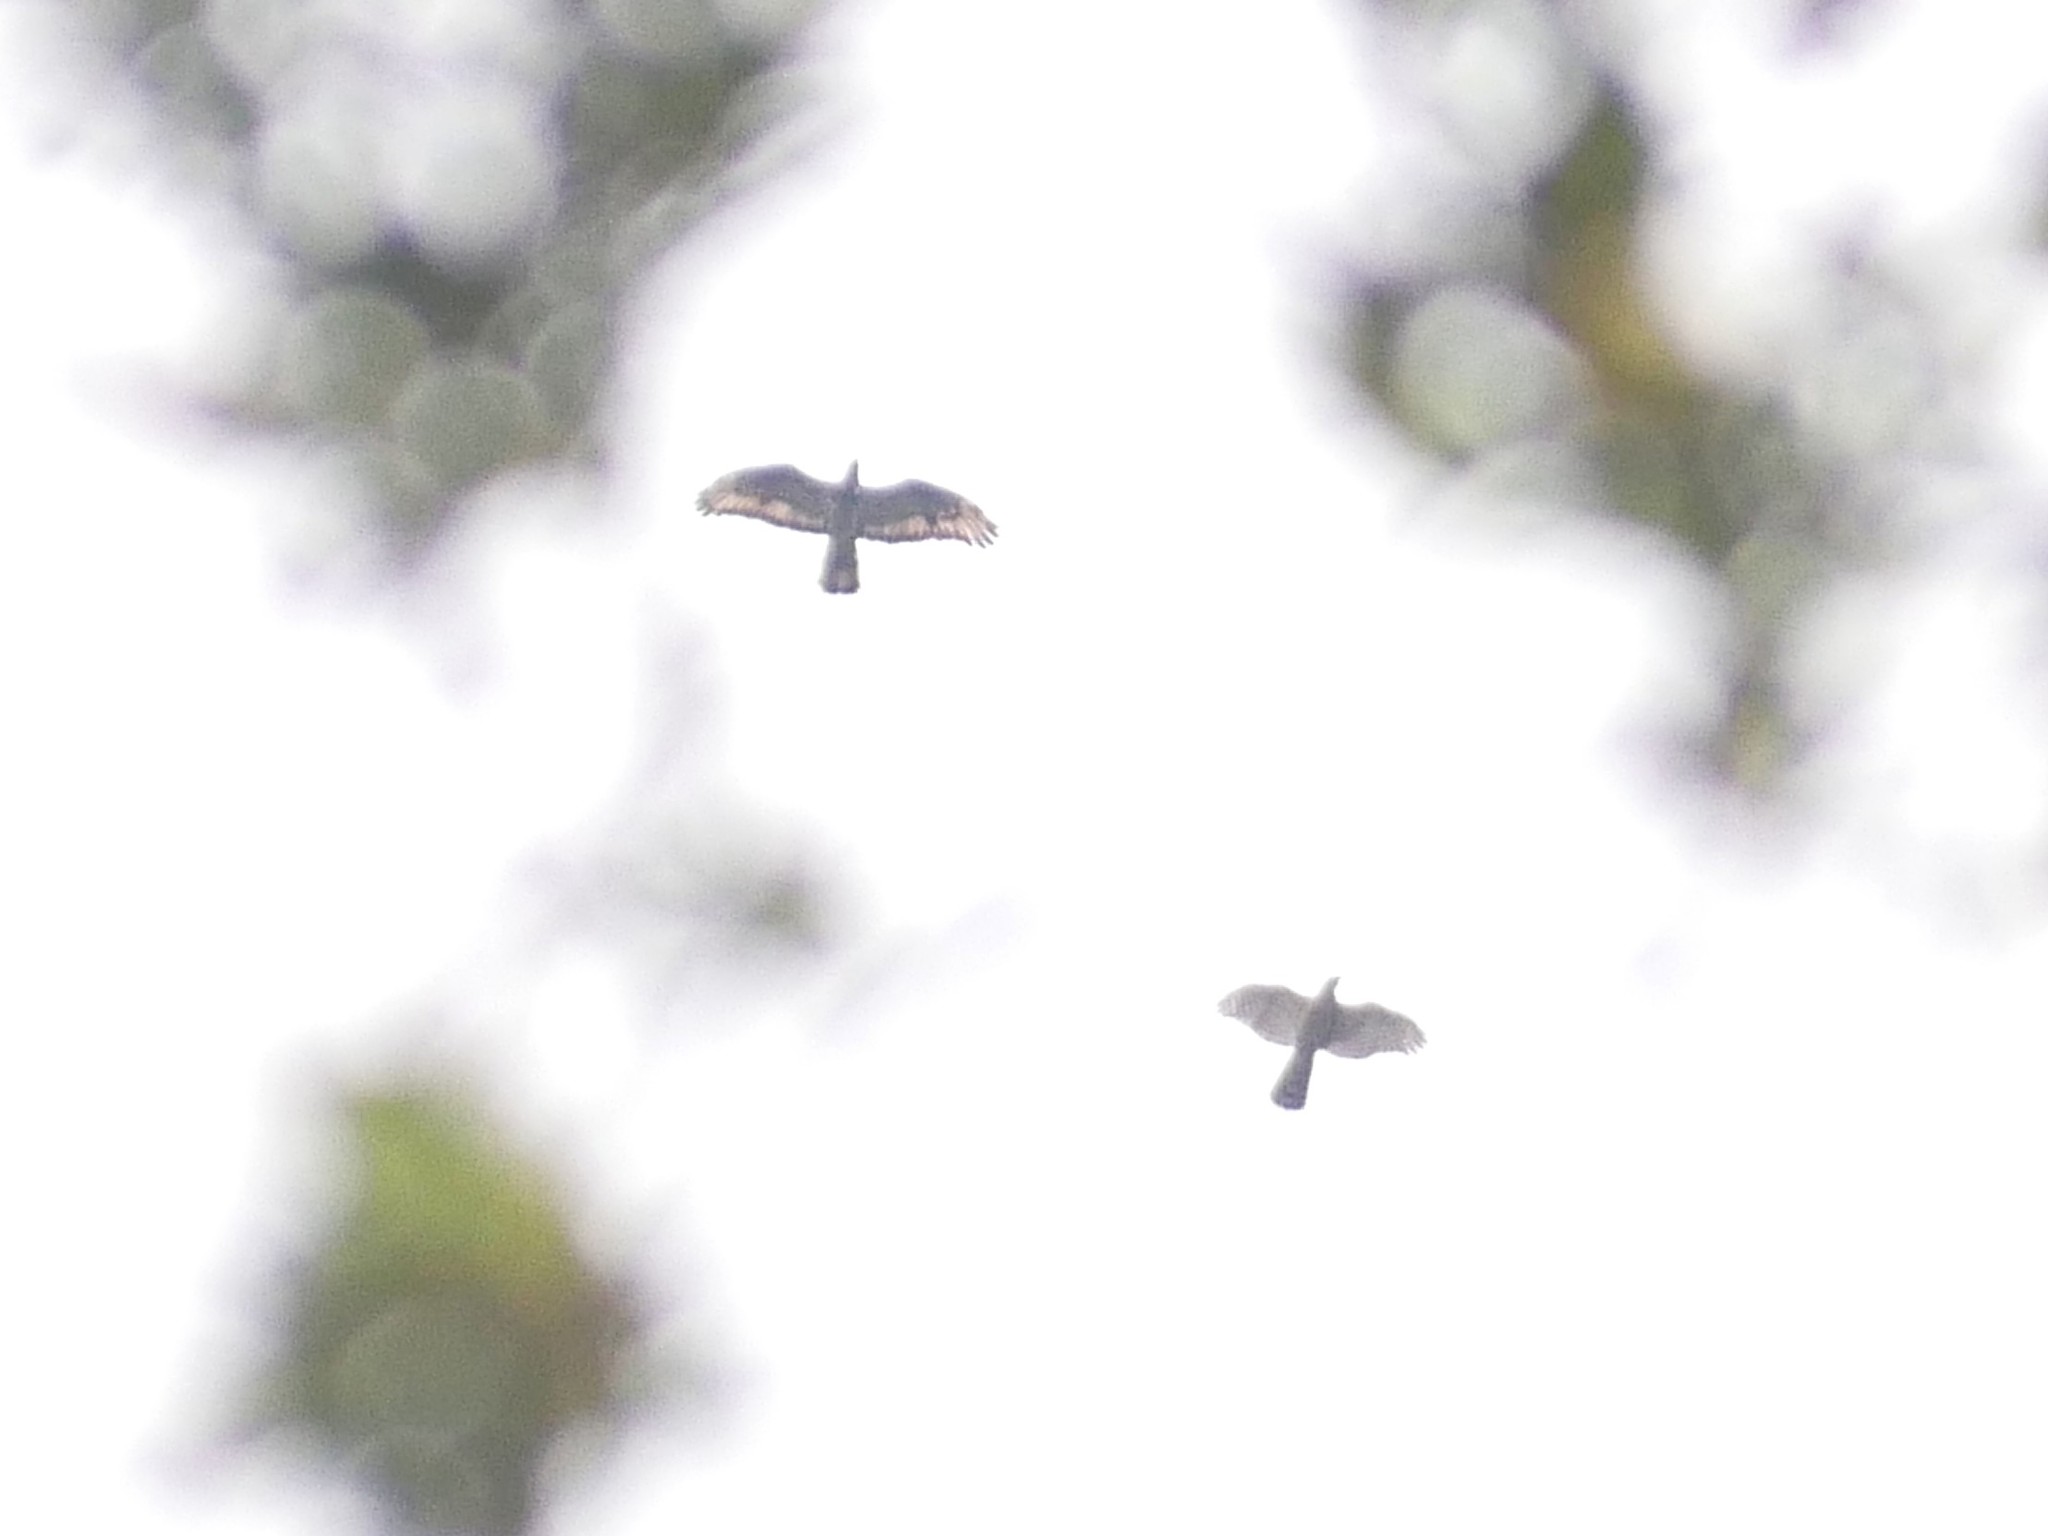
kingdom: Animalia
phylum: Chordata
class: Aves
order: Accipitriformes
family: Accipitridae
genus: Pernis
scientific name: Pernis apivorus
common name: European honey buzzard
